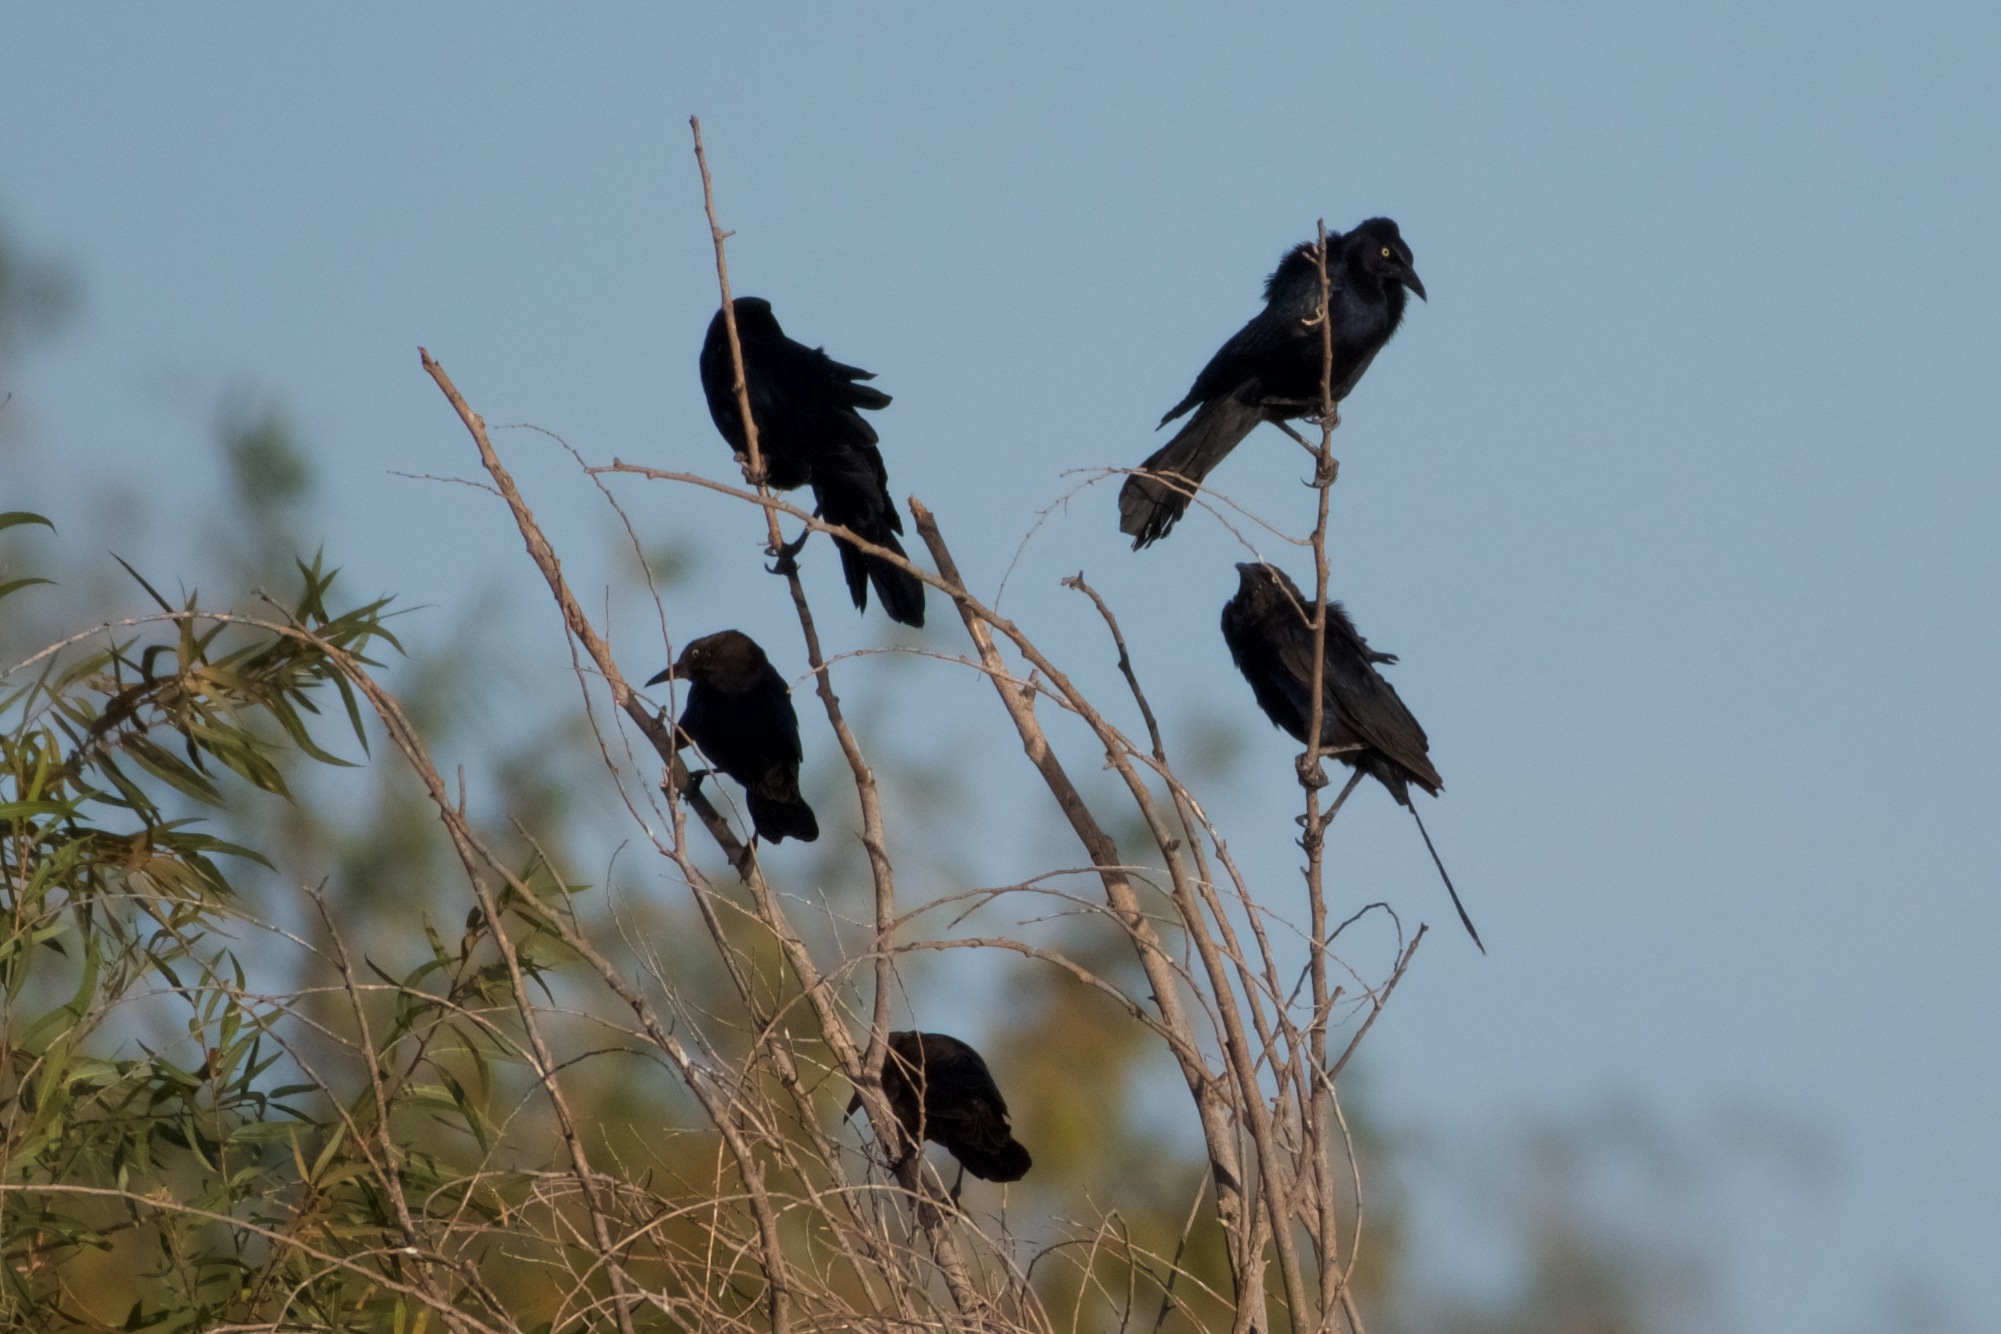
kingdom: Animalia
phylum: Chordata
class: Aves
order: Passeriformes
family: Icteridae
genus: Agelaius
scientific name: Agelaius tricolor
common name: Tricolored blackbird
